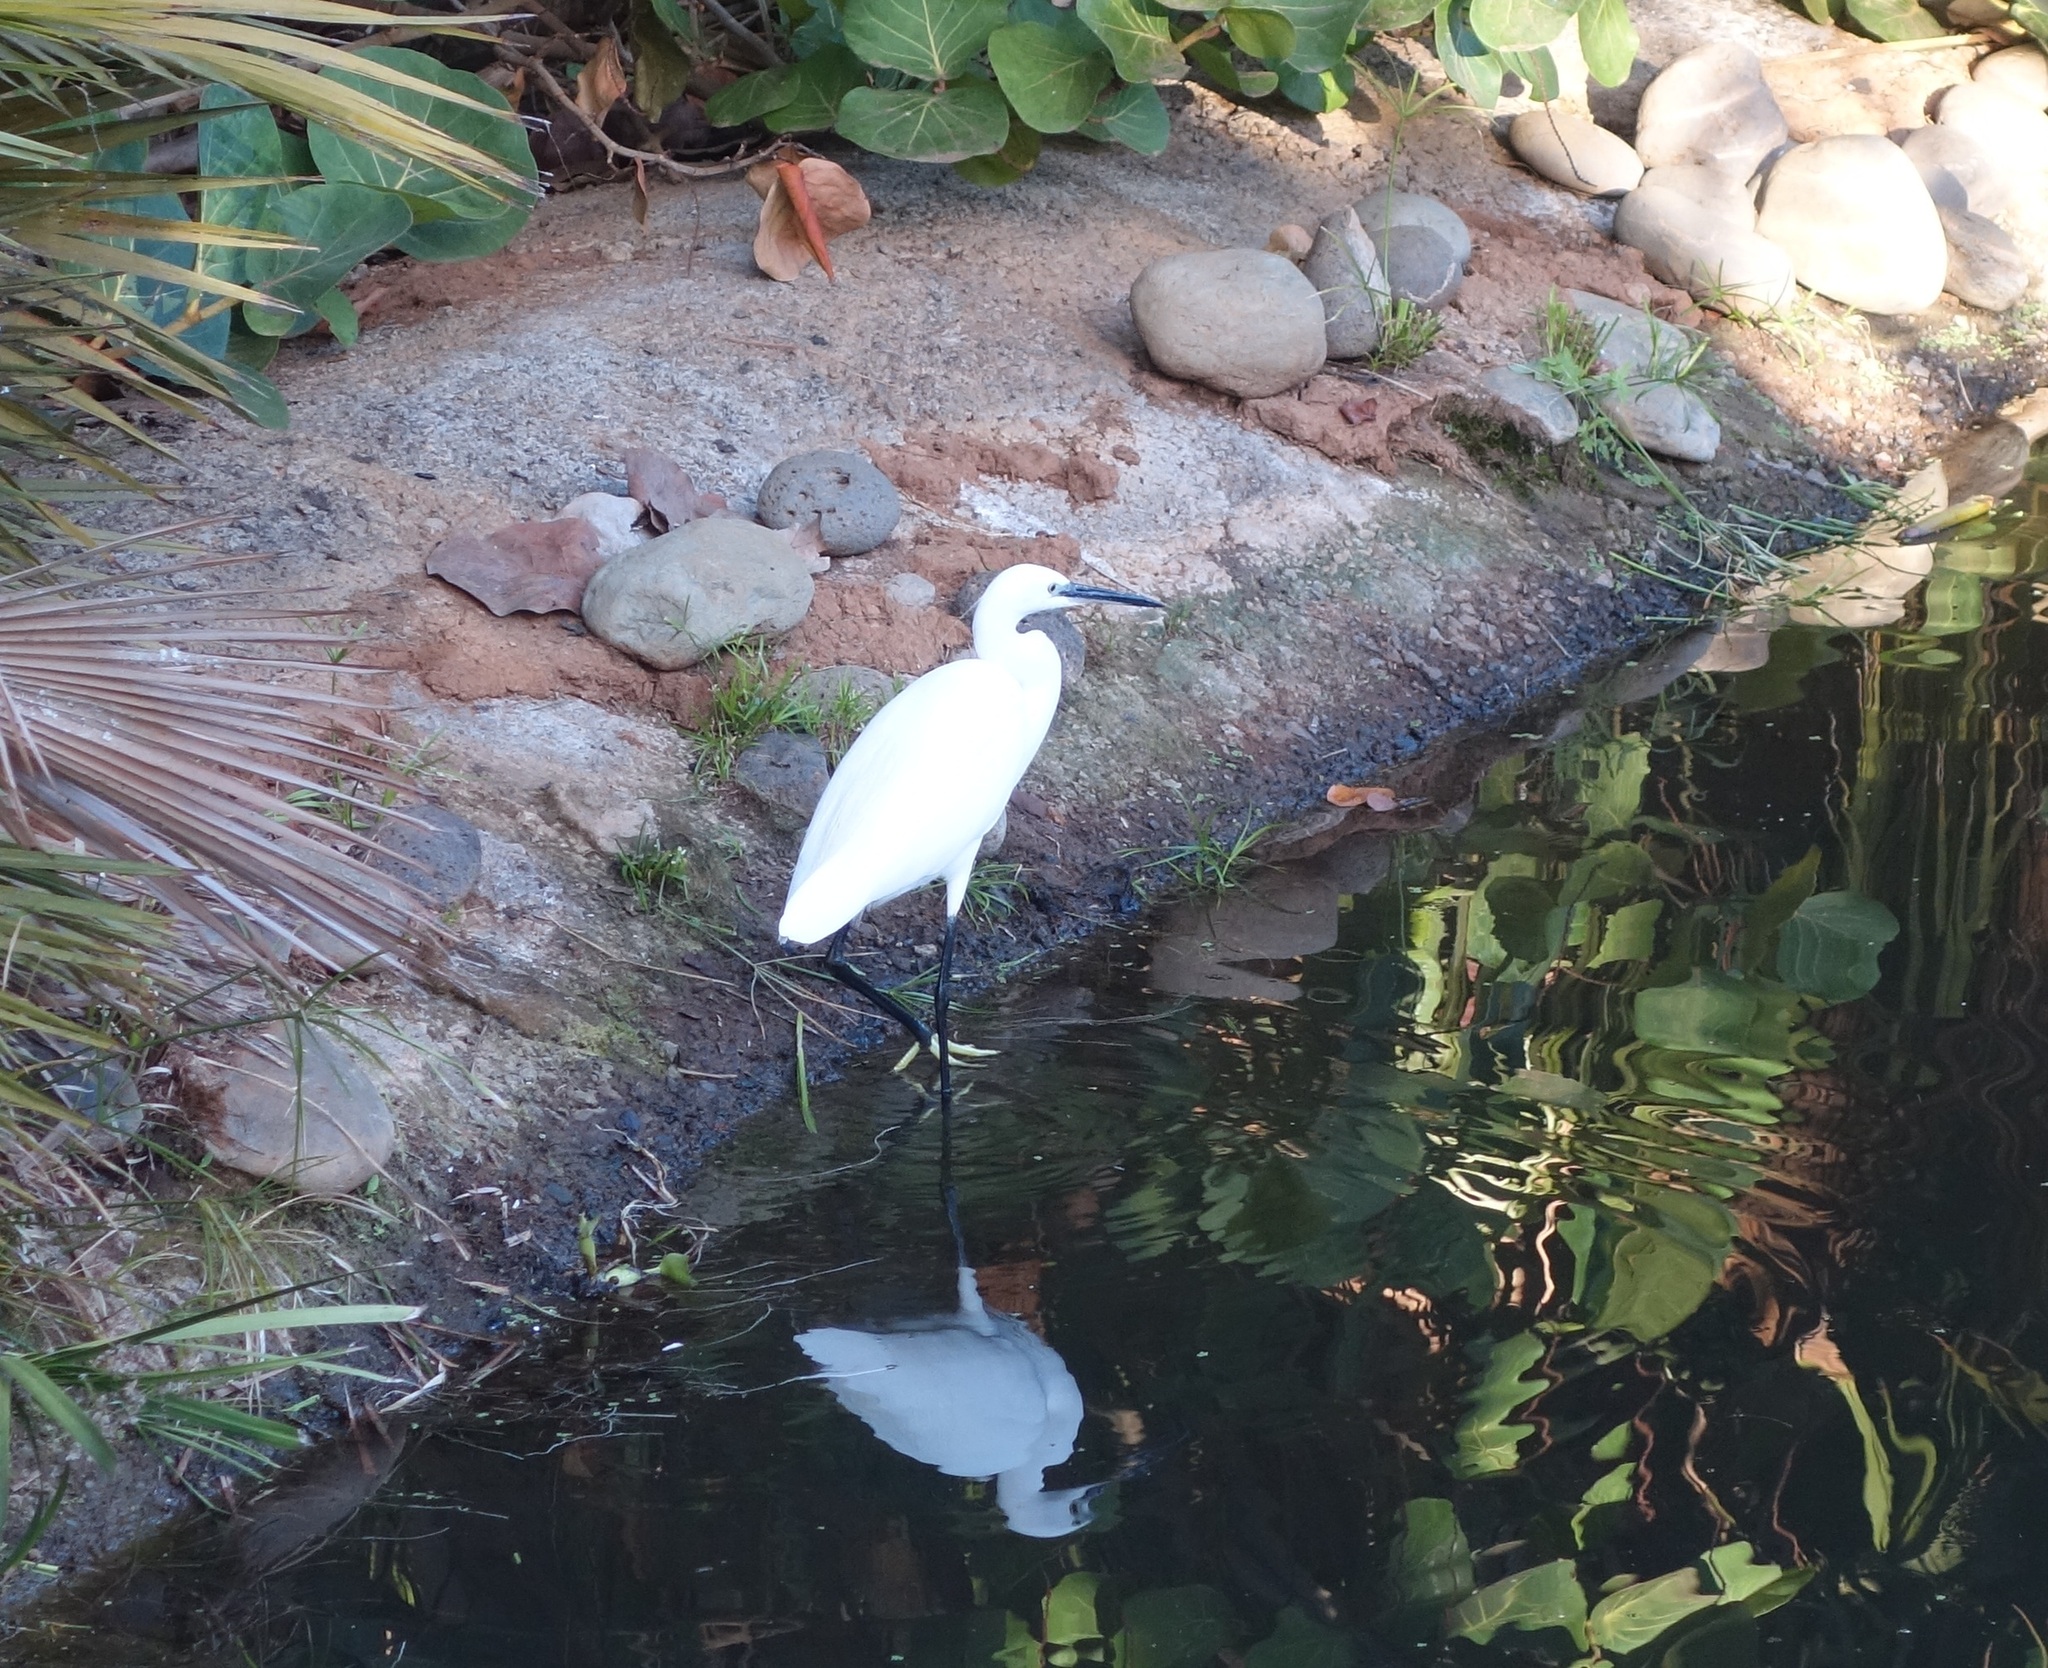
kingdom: Animalia
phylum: Chordata
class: Aves
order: Pelecaniformes
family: Ardeidae
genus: Egretta
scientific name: Egretta garzetta
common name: Little egret
